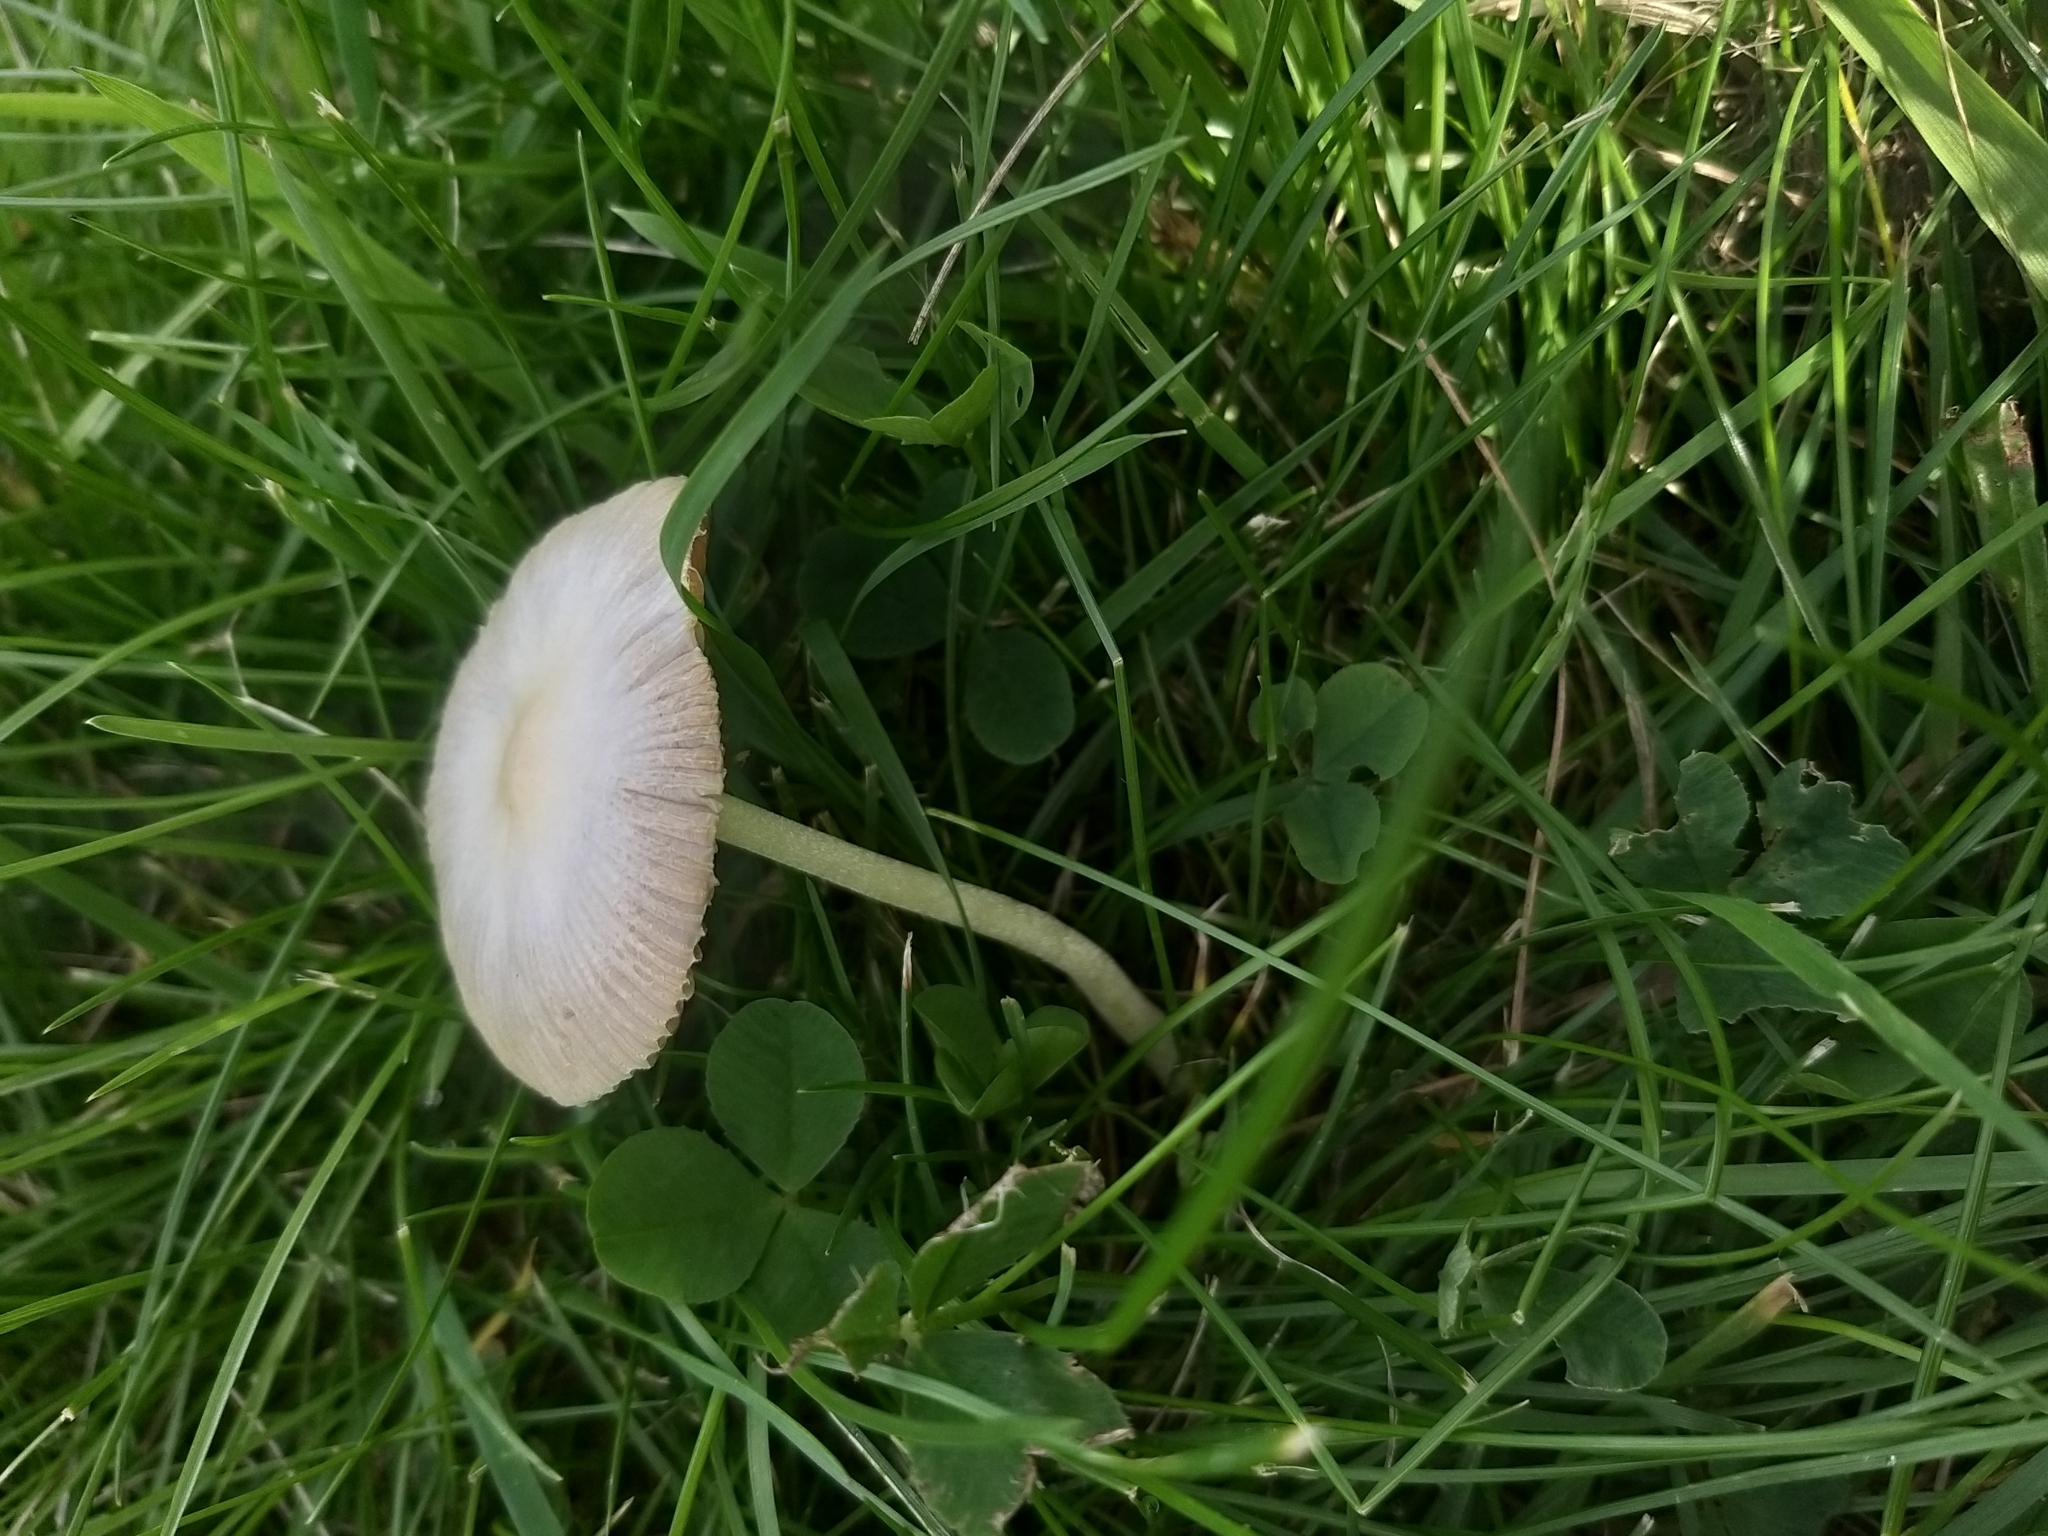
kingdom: Fungi
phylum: Basidiomycota
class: Agaricomycetes
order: Agaricales
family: Bolbitiaceae
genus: Bolbitius
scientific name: Bolbitius titubans
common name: Yellow fieldcap
